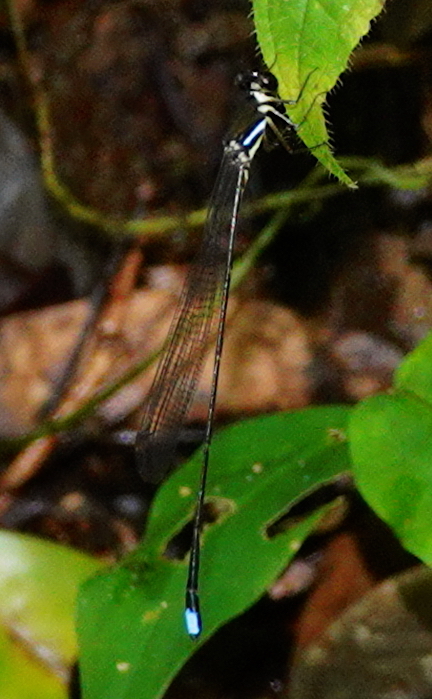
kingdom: Animalia
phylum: Arthropoda
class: Insecta
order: Odonata
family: Platystictidae
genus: Platysticta
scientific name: Platysticta maculata
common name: Blurry forestdamsel
